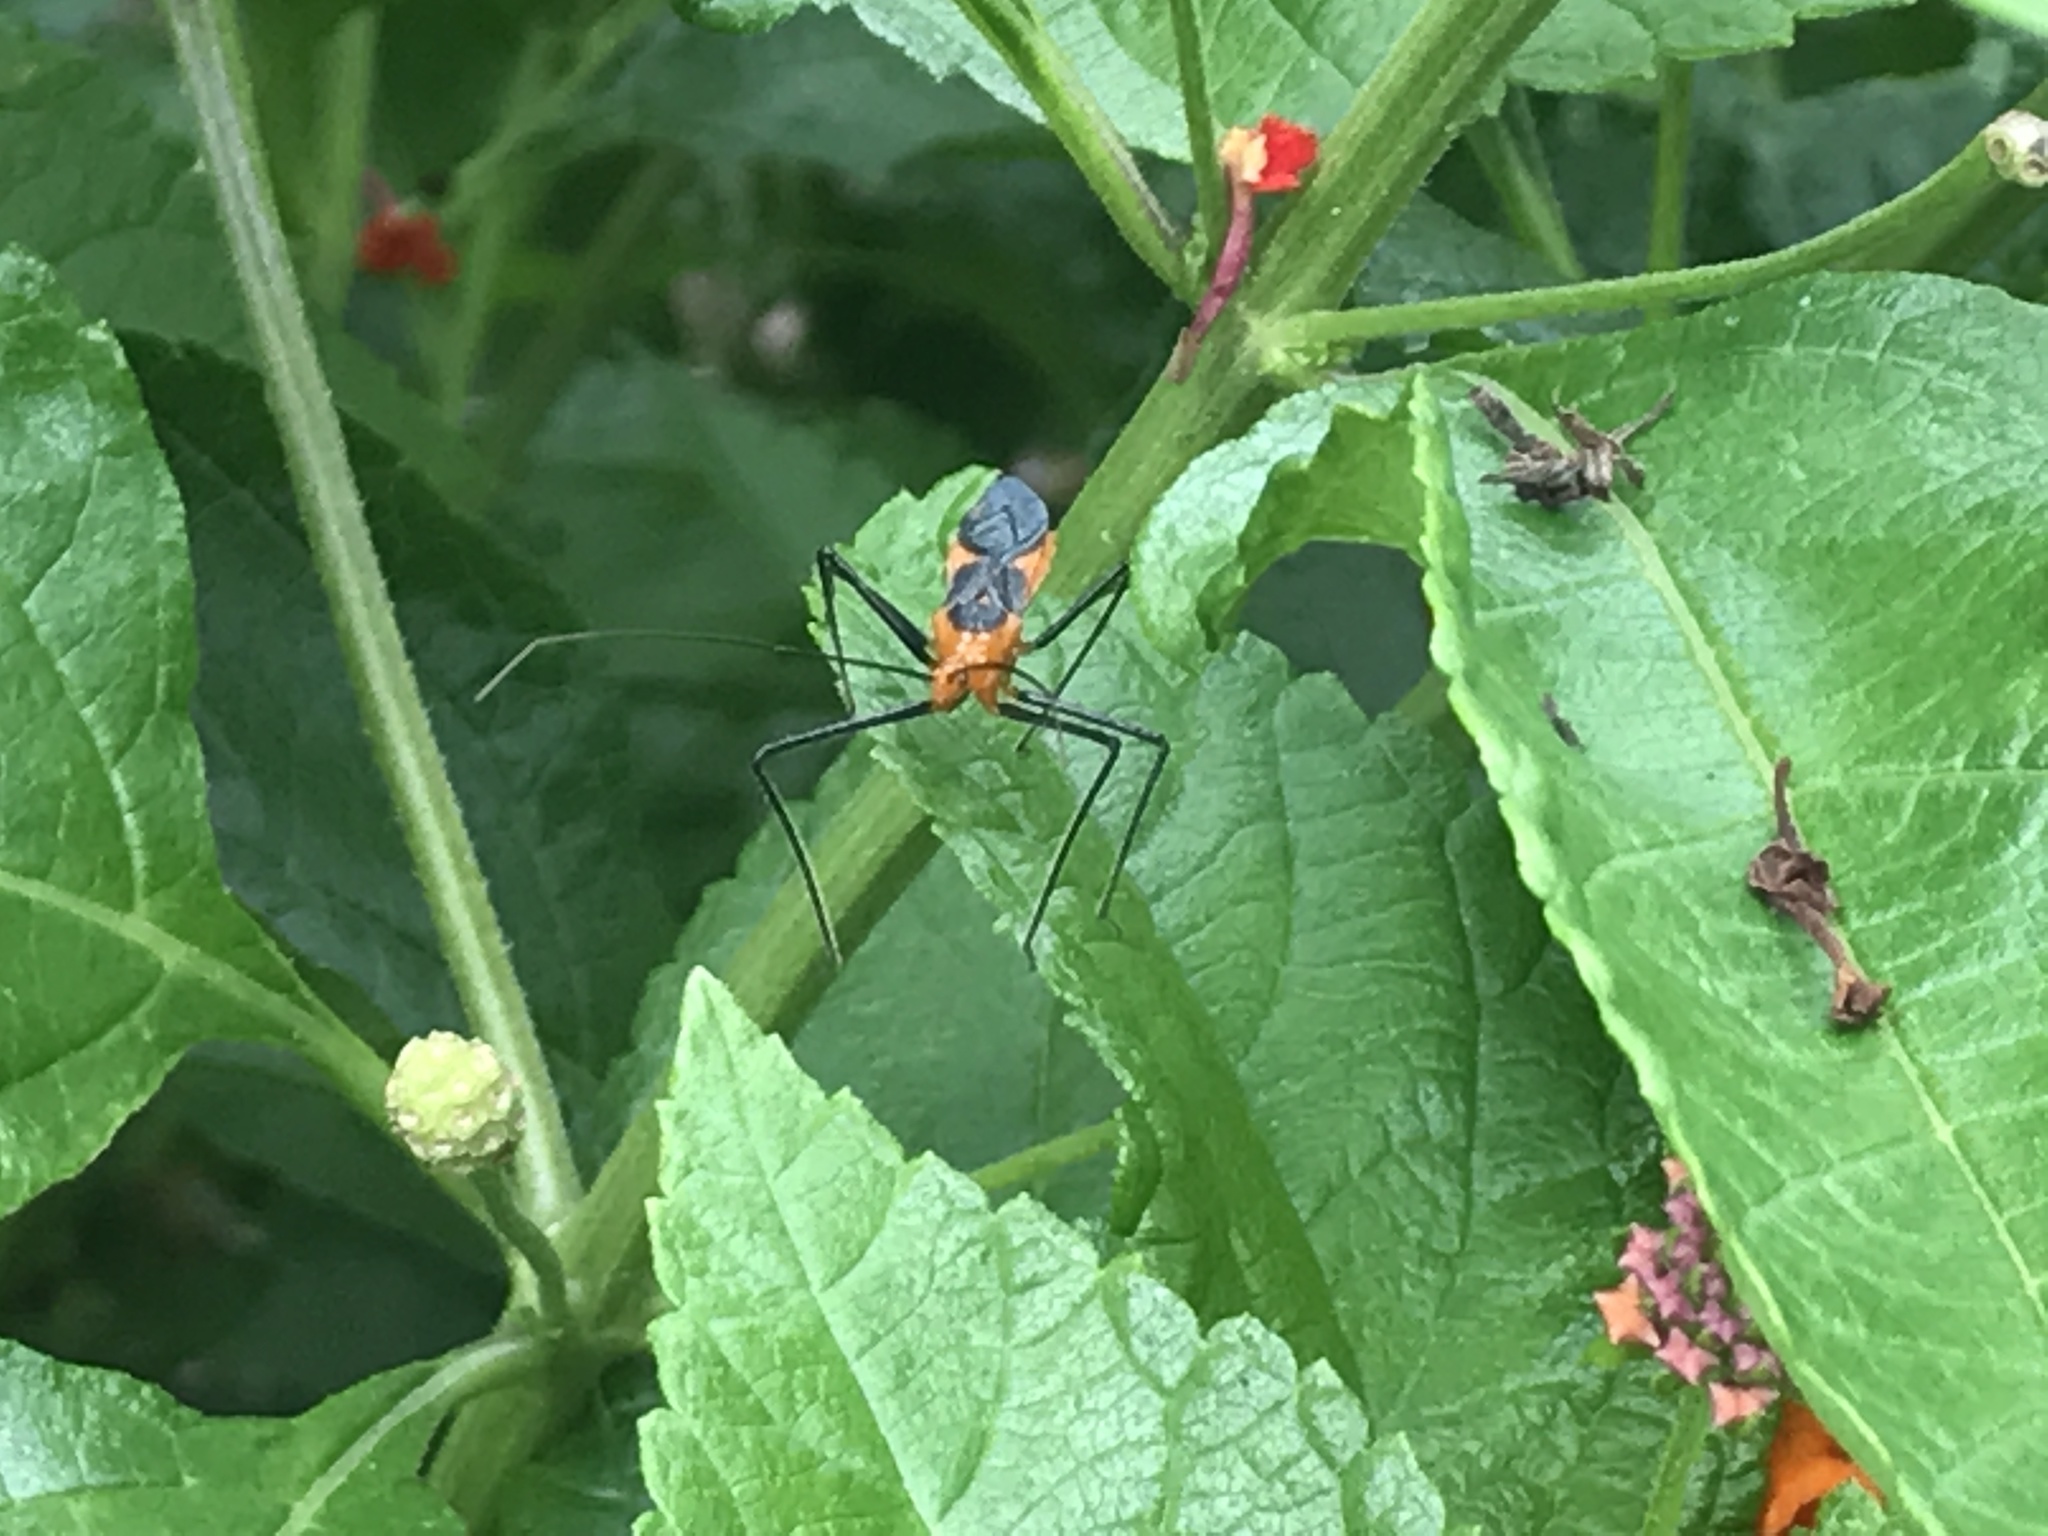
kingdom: Animalia
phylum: Arthropoda
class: Insecta
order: Hemiptera
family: Reduviidae
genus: Zelus
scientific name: Zelus longipes
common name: Milkweed assassin bug
